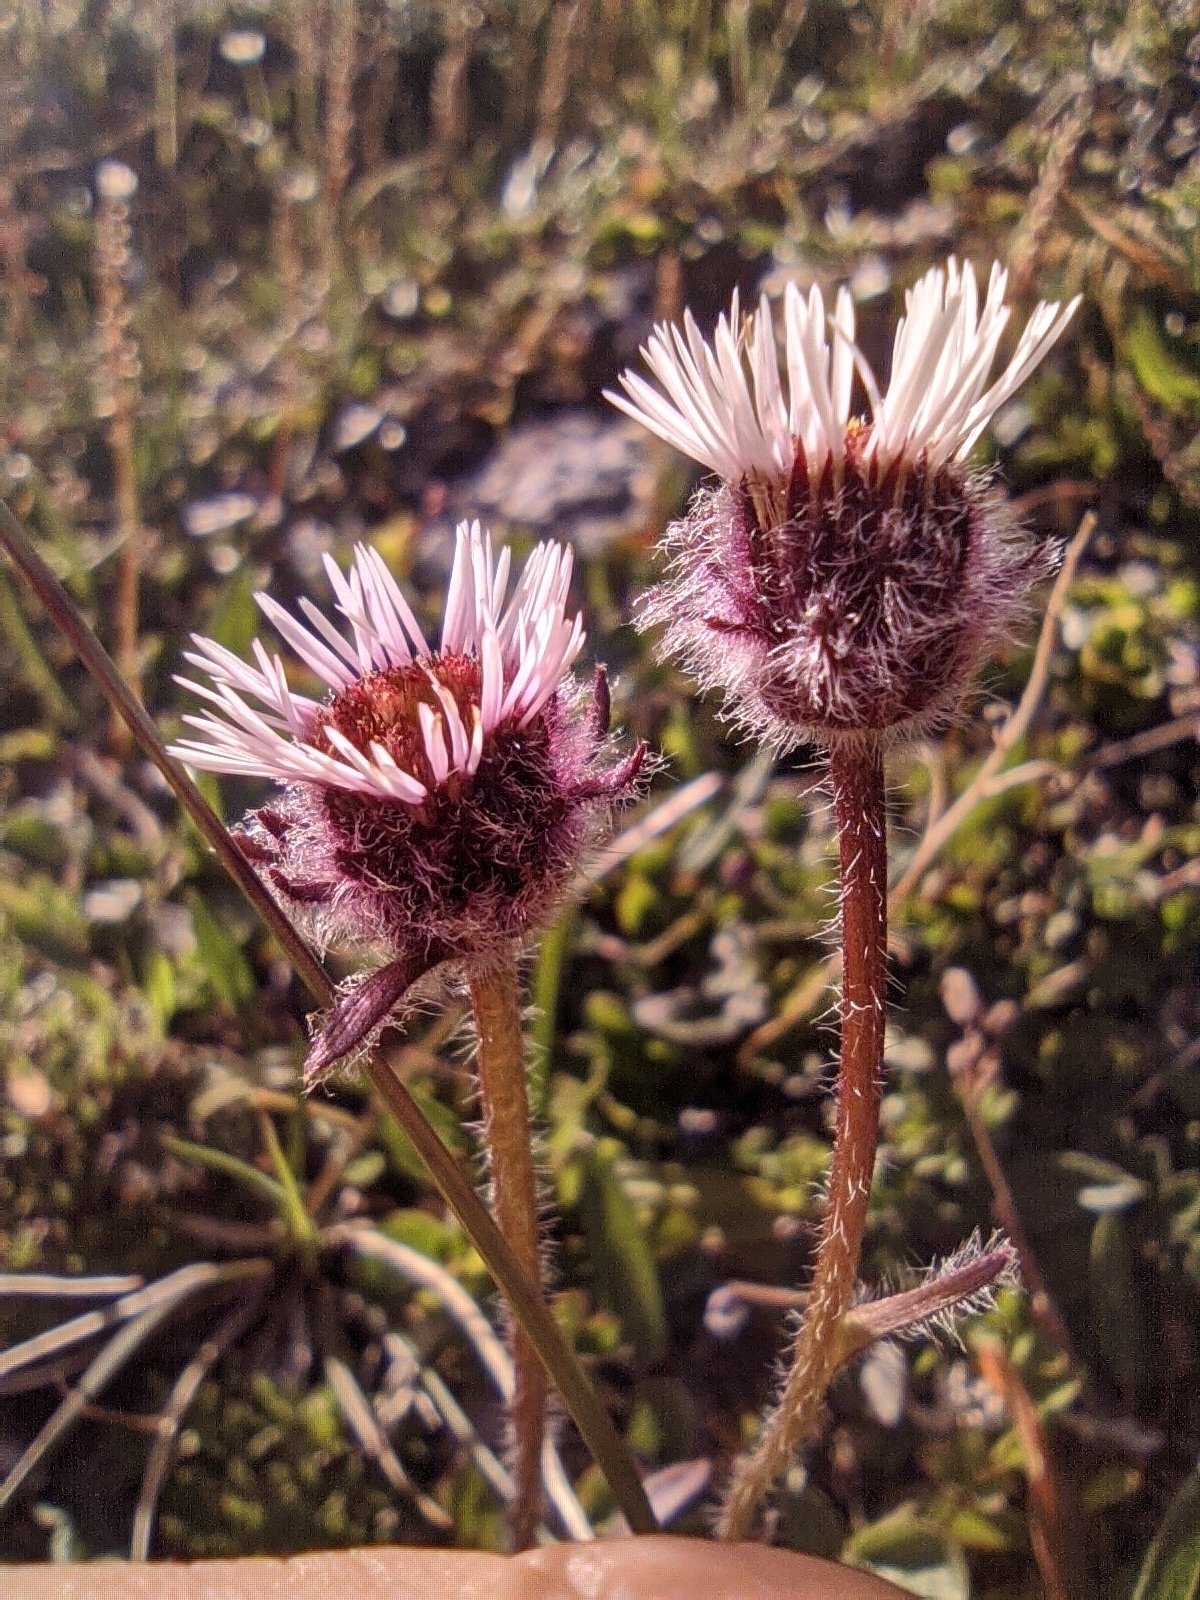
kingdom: Plantae
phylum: Tracheophyta
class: Magnoliopsida
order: Asterales
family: Asteraceae
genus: Erigeron
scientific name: Erigeron uniflorus
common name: Northern daisy
